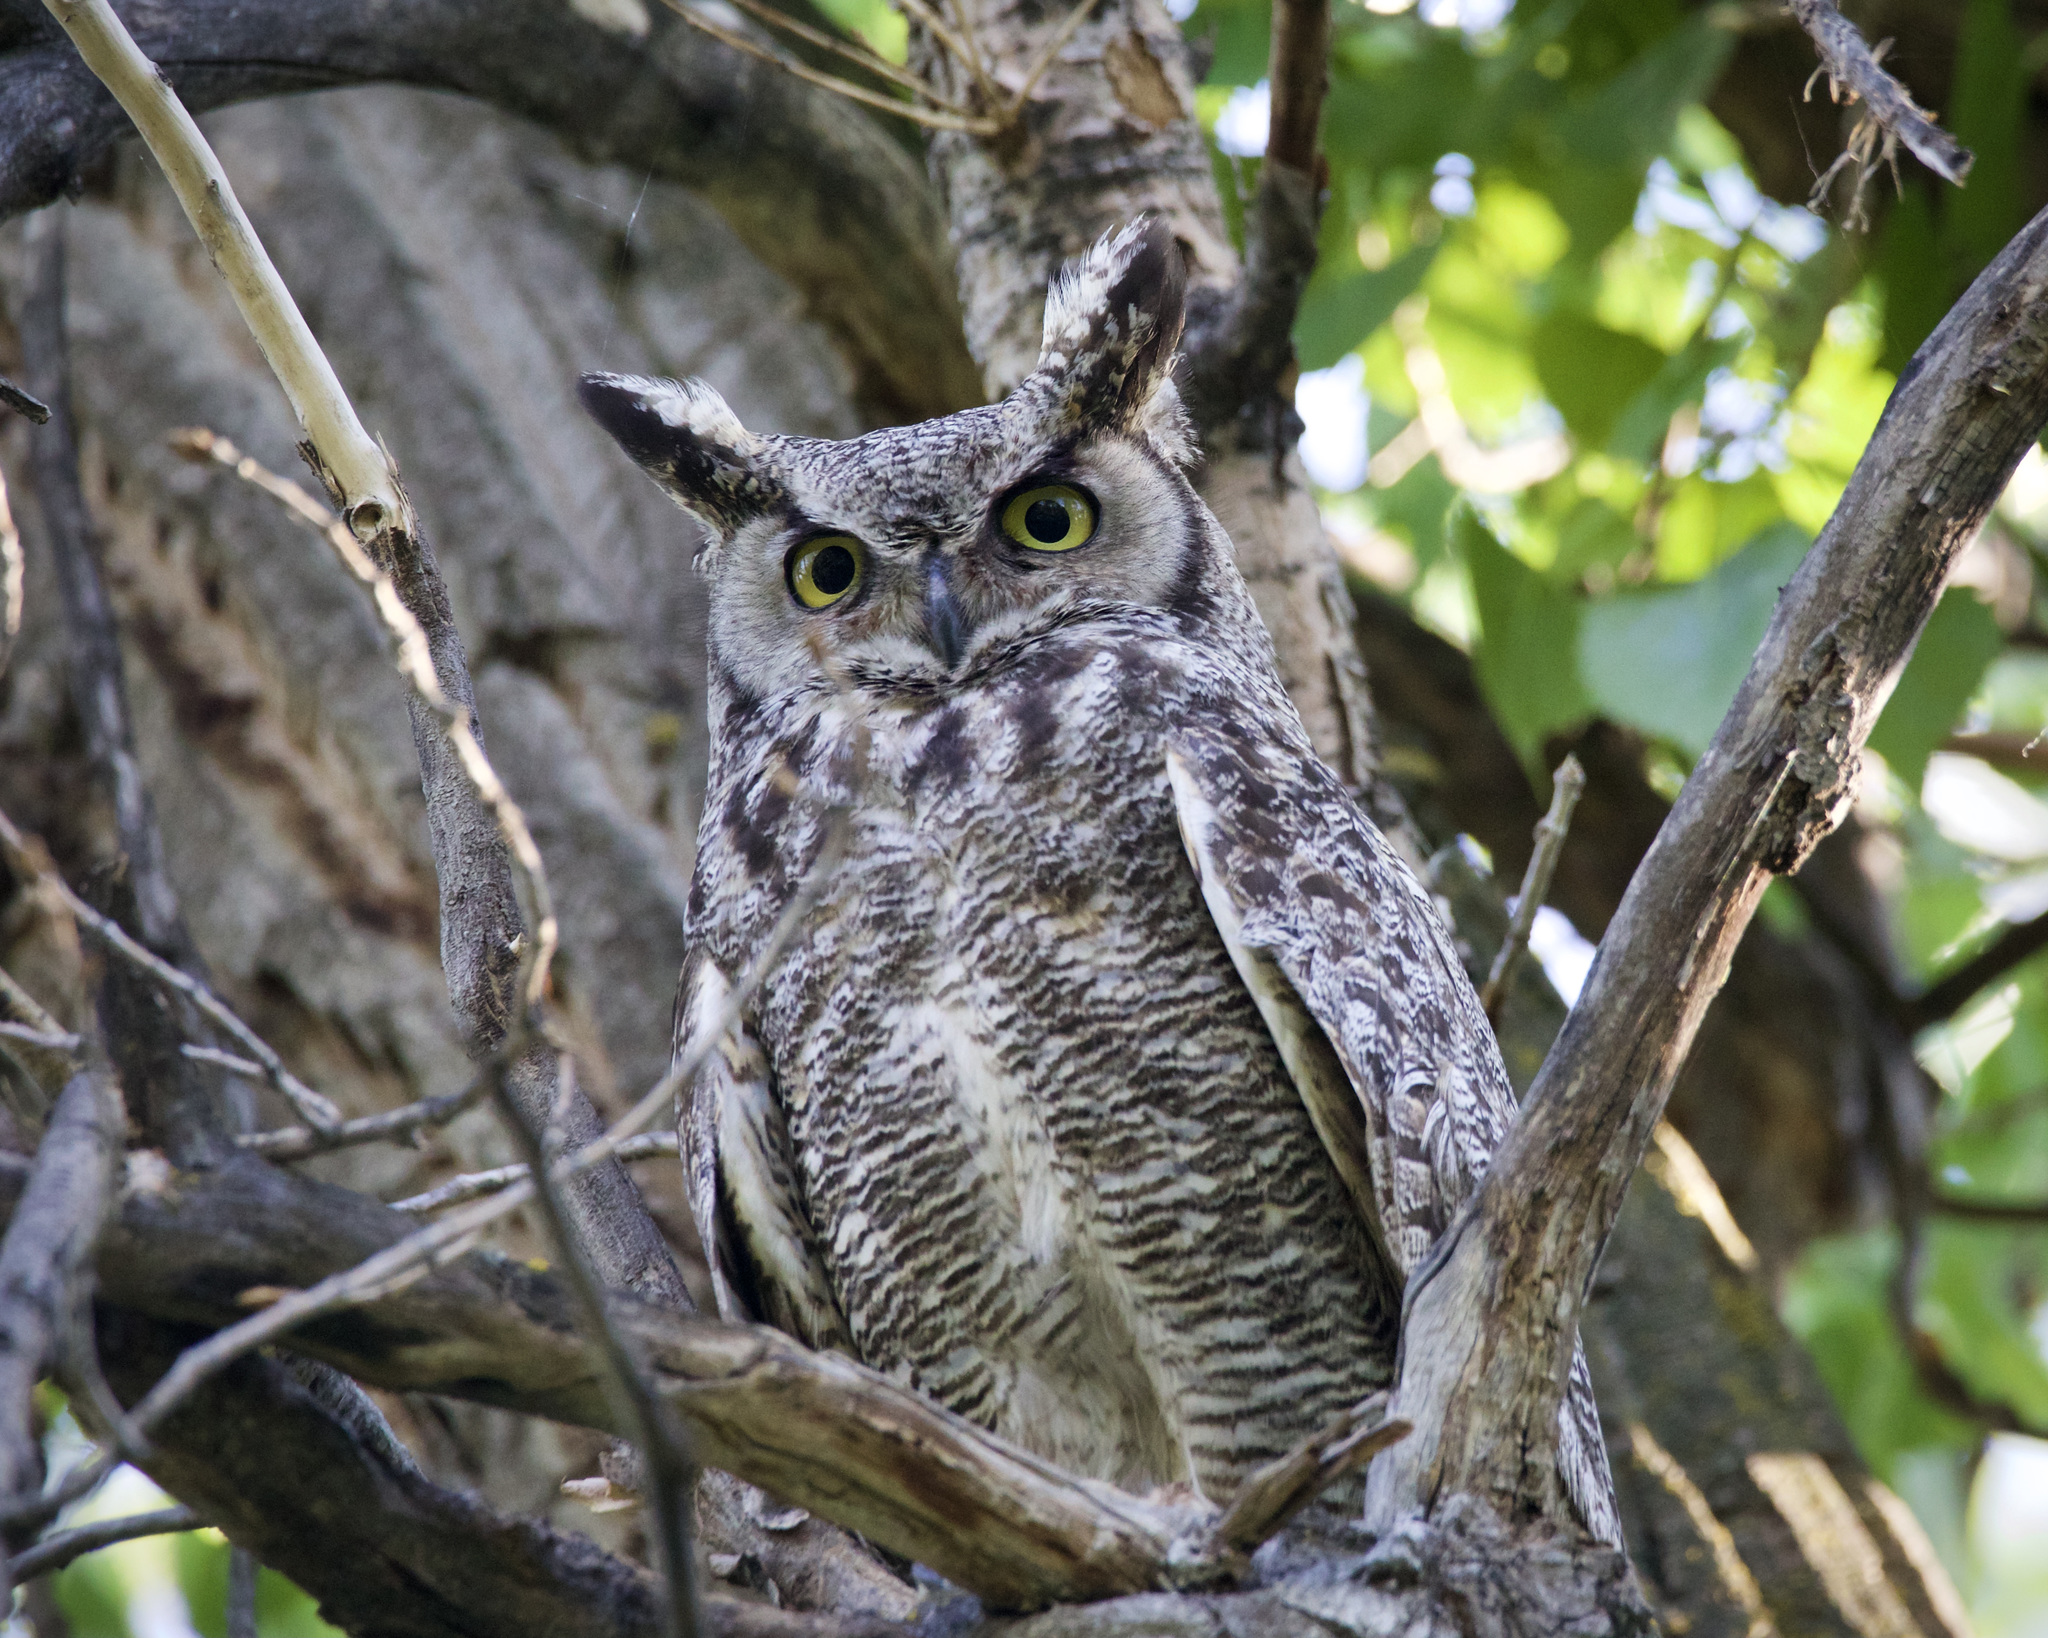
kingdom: Animalia
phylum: Chordata
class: Aves
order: Strigiformes
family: Strigidae
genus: Bubo
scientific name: Bubo virginianus
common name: Great horned owl
